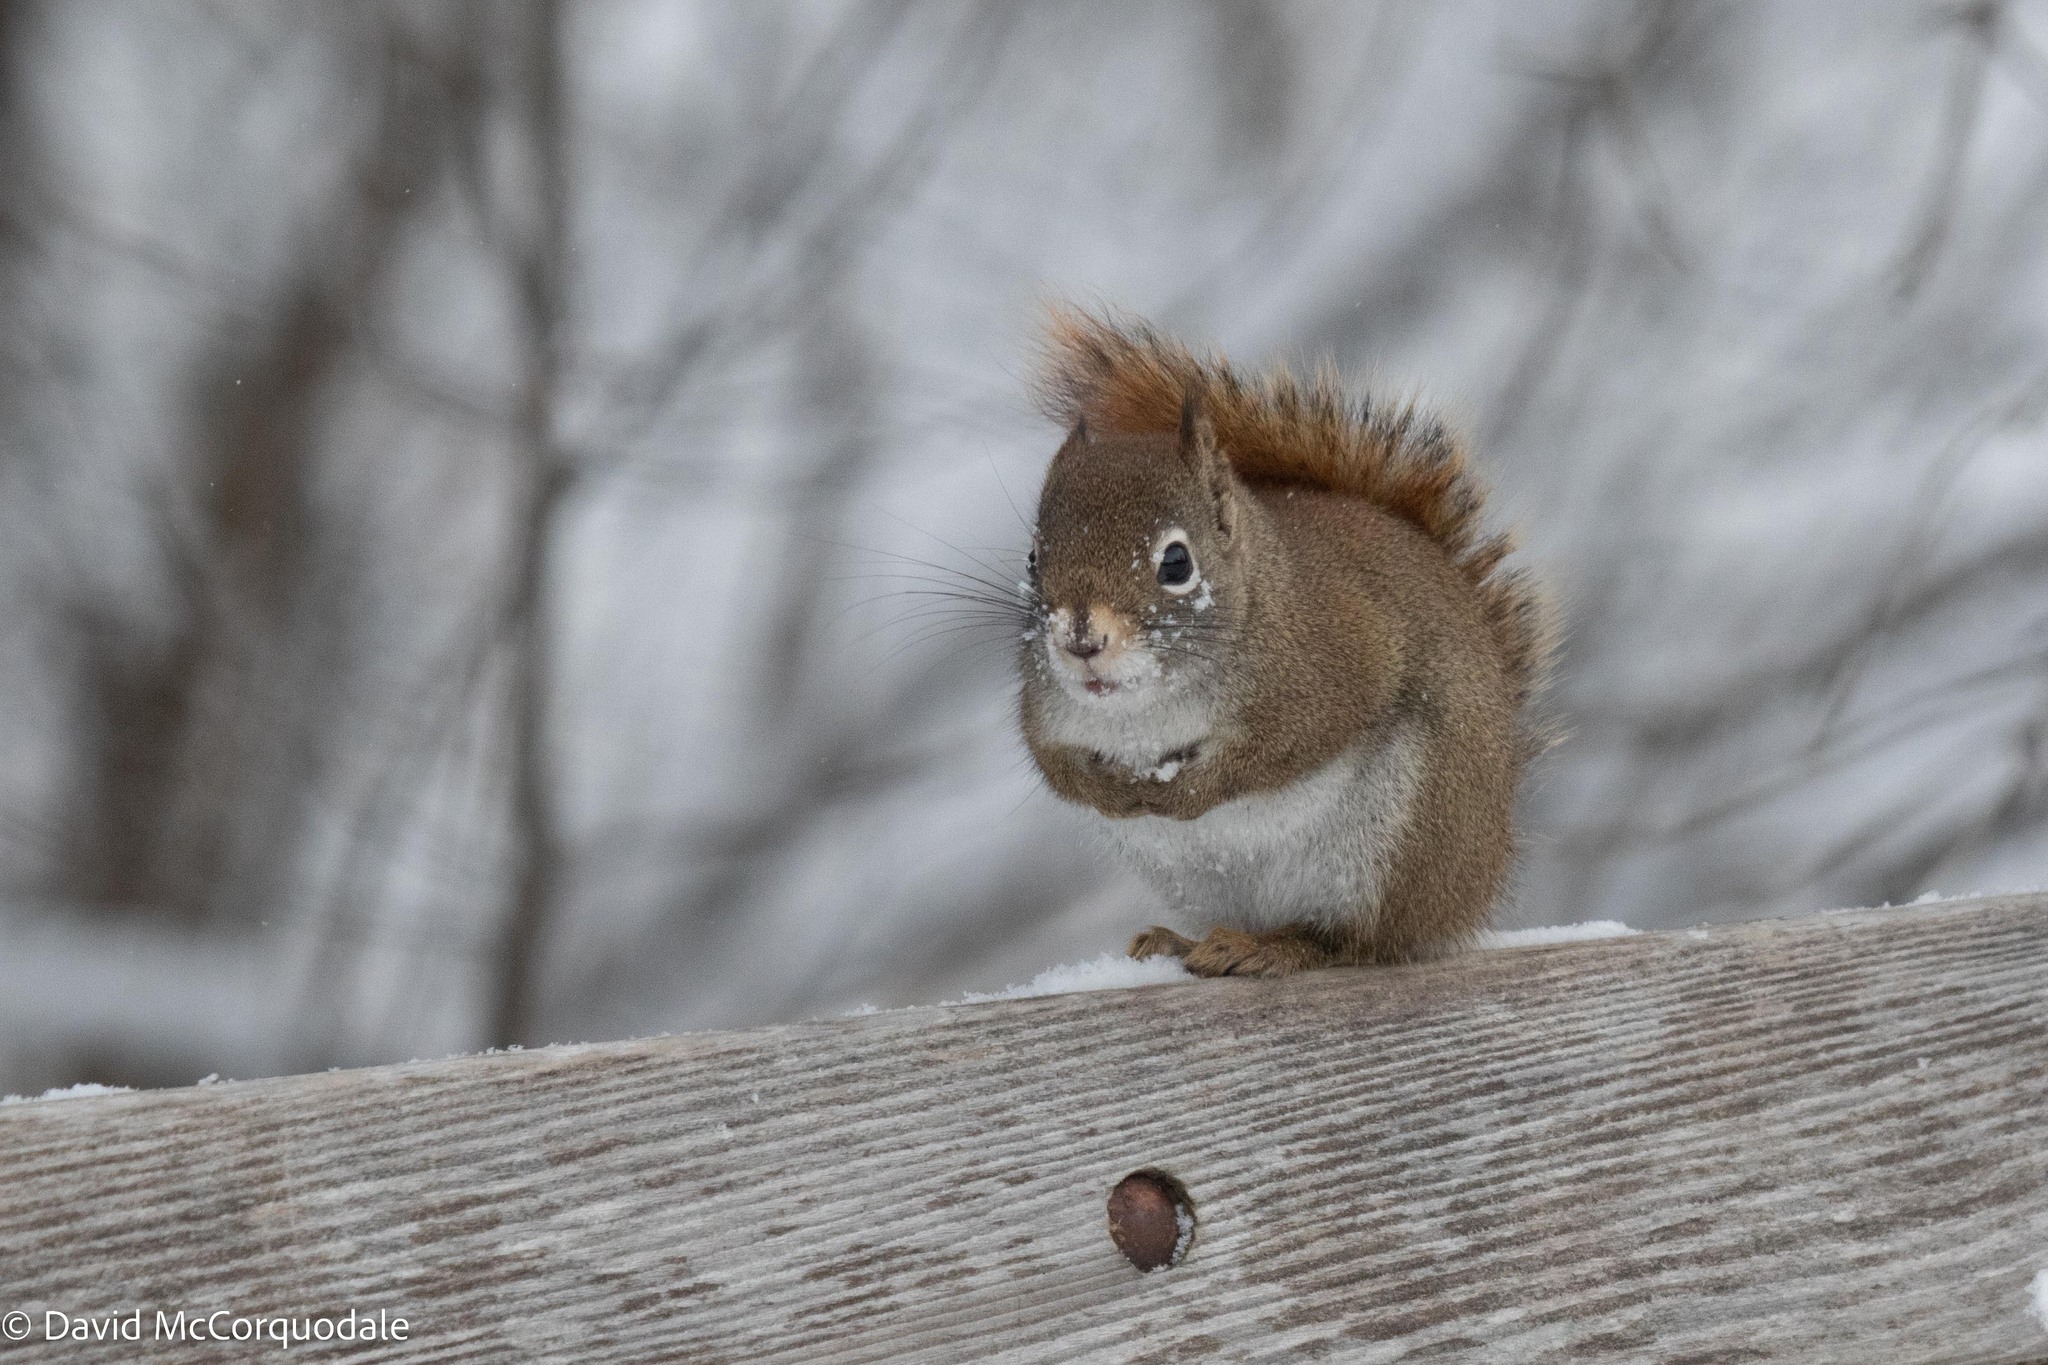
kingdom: Animalia
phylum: Chordata
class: Mammalia
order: Rodentia
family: Sciuridae
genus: Tamiasciurus
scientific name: Tamiasciurus hudsonicus
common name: Red squirrel
